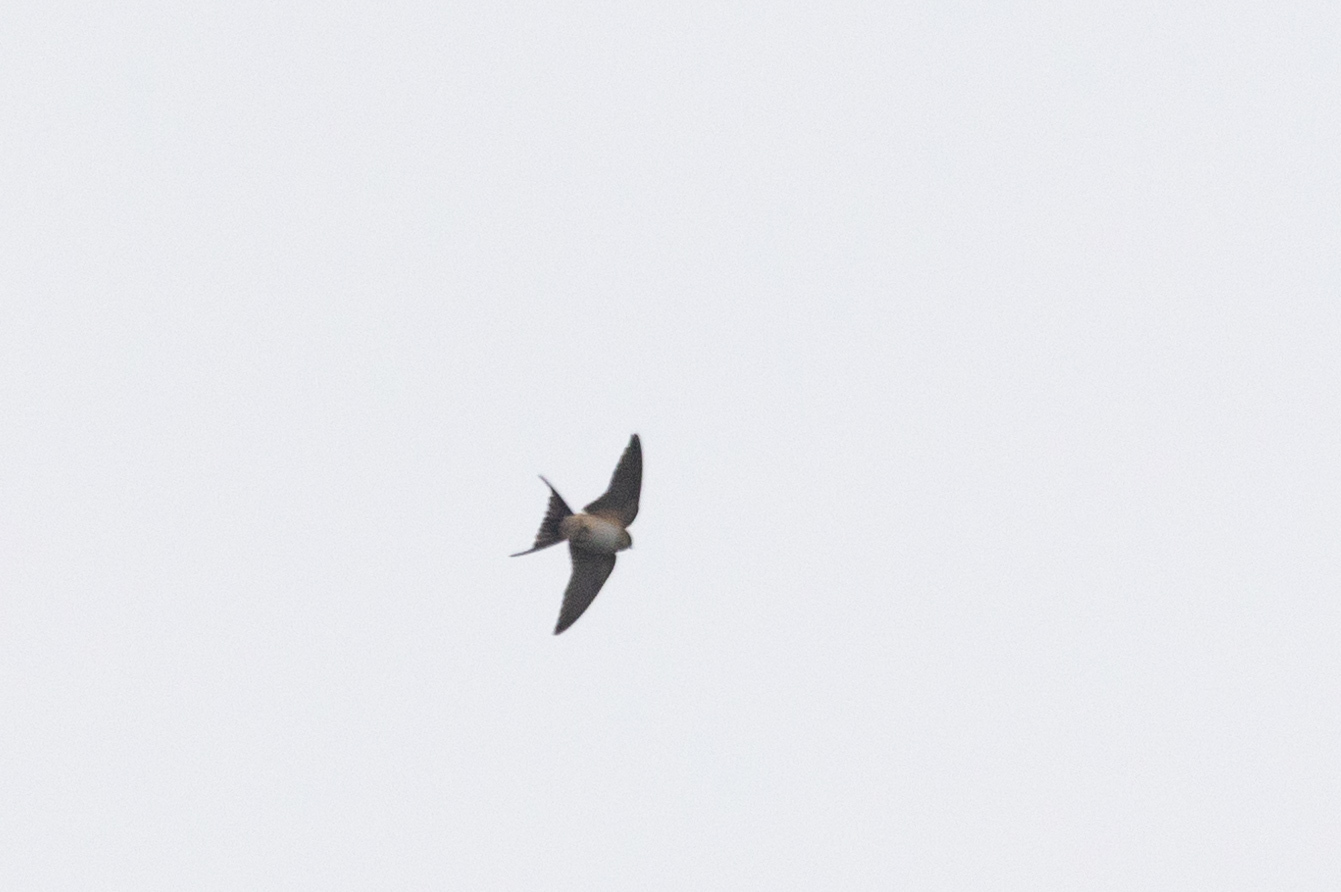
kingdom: Animalia
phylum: Chordata
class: Aves
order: Passeriformes
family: Hirundinidae
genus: Cecropis
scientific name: Cecropis daurica
